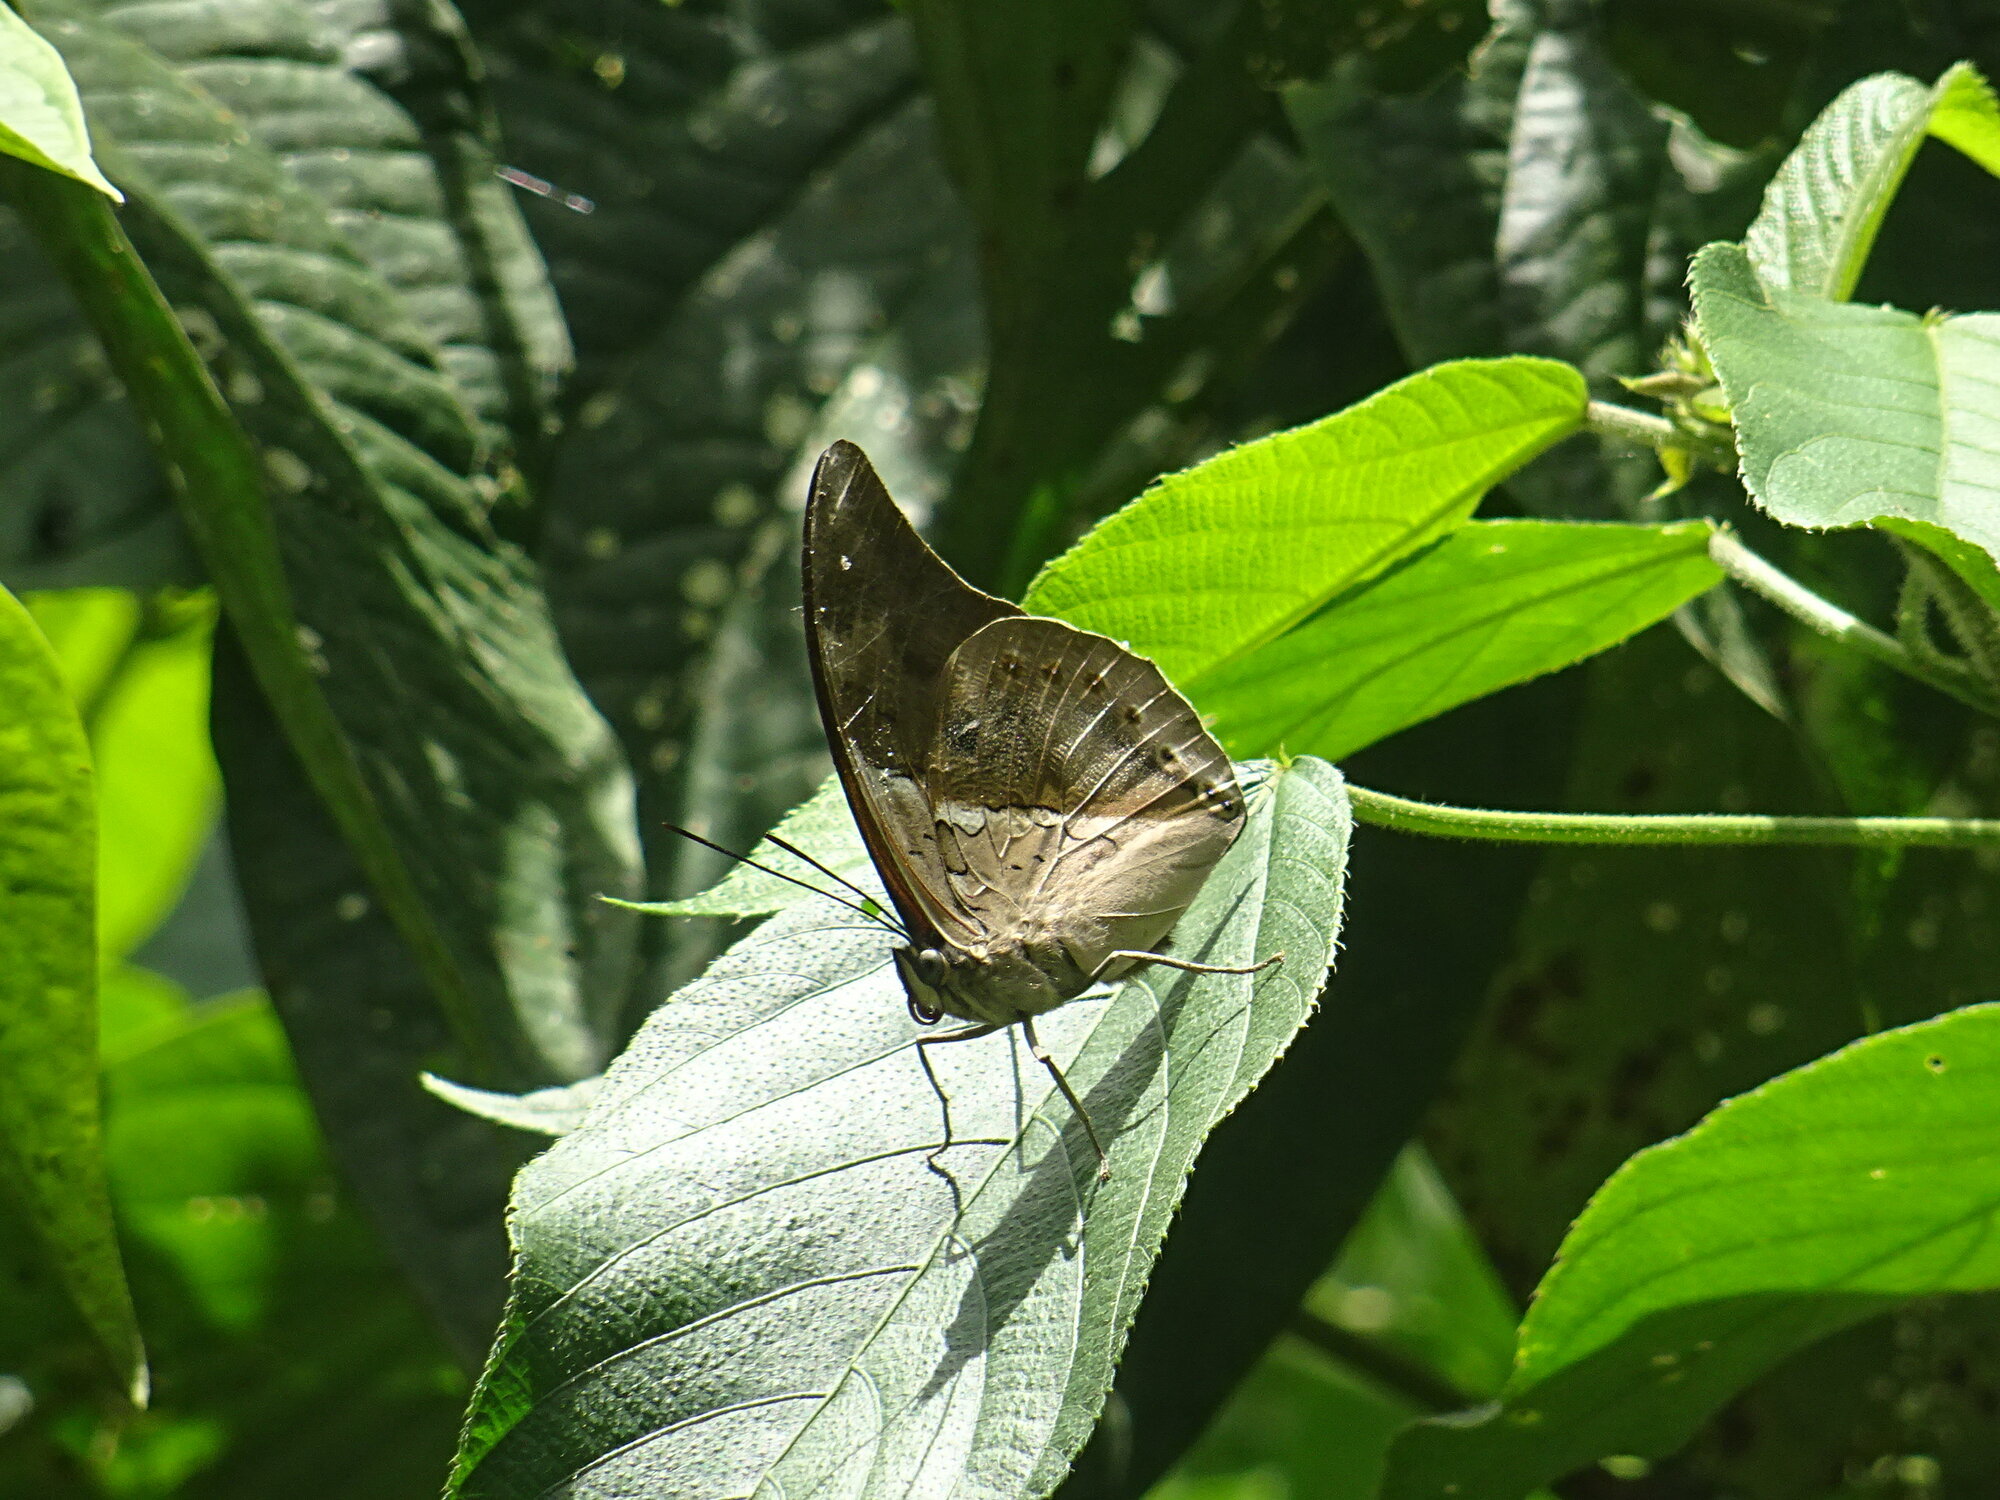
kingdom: Animalia
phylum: Arthropoda
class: Insecta
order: Lepidoptera
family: Nymphalidae
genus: Prepona
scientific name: Prepona
